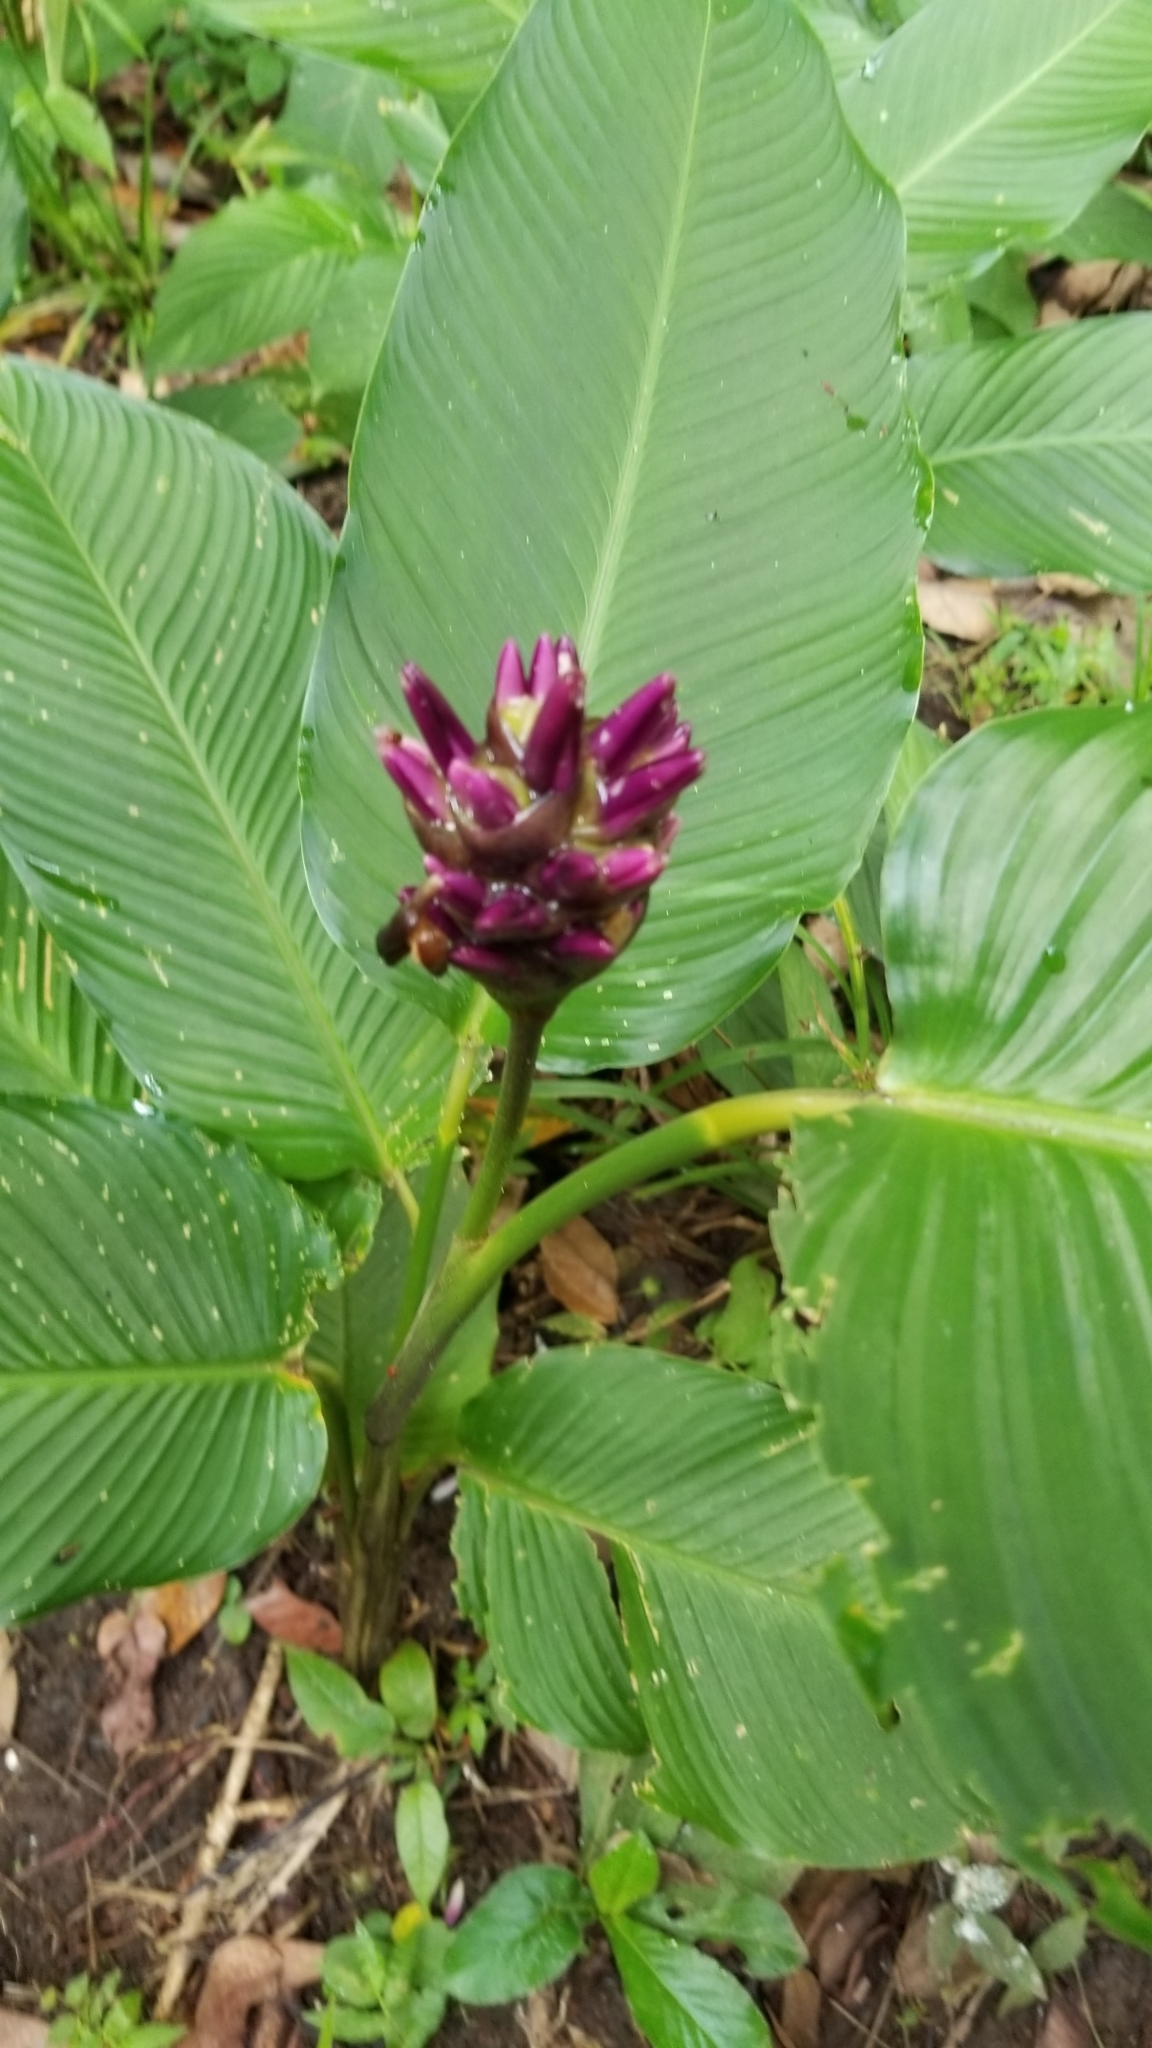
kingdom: Plantae
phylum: Tracheophyta
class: Liliopsida
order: Zingiberales
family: Marantaceae
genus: Goeppertia
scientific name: Goeppertia latifolia
